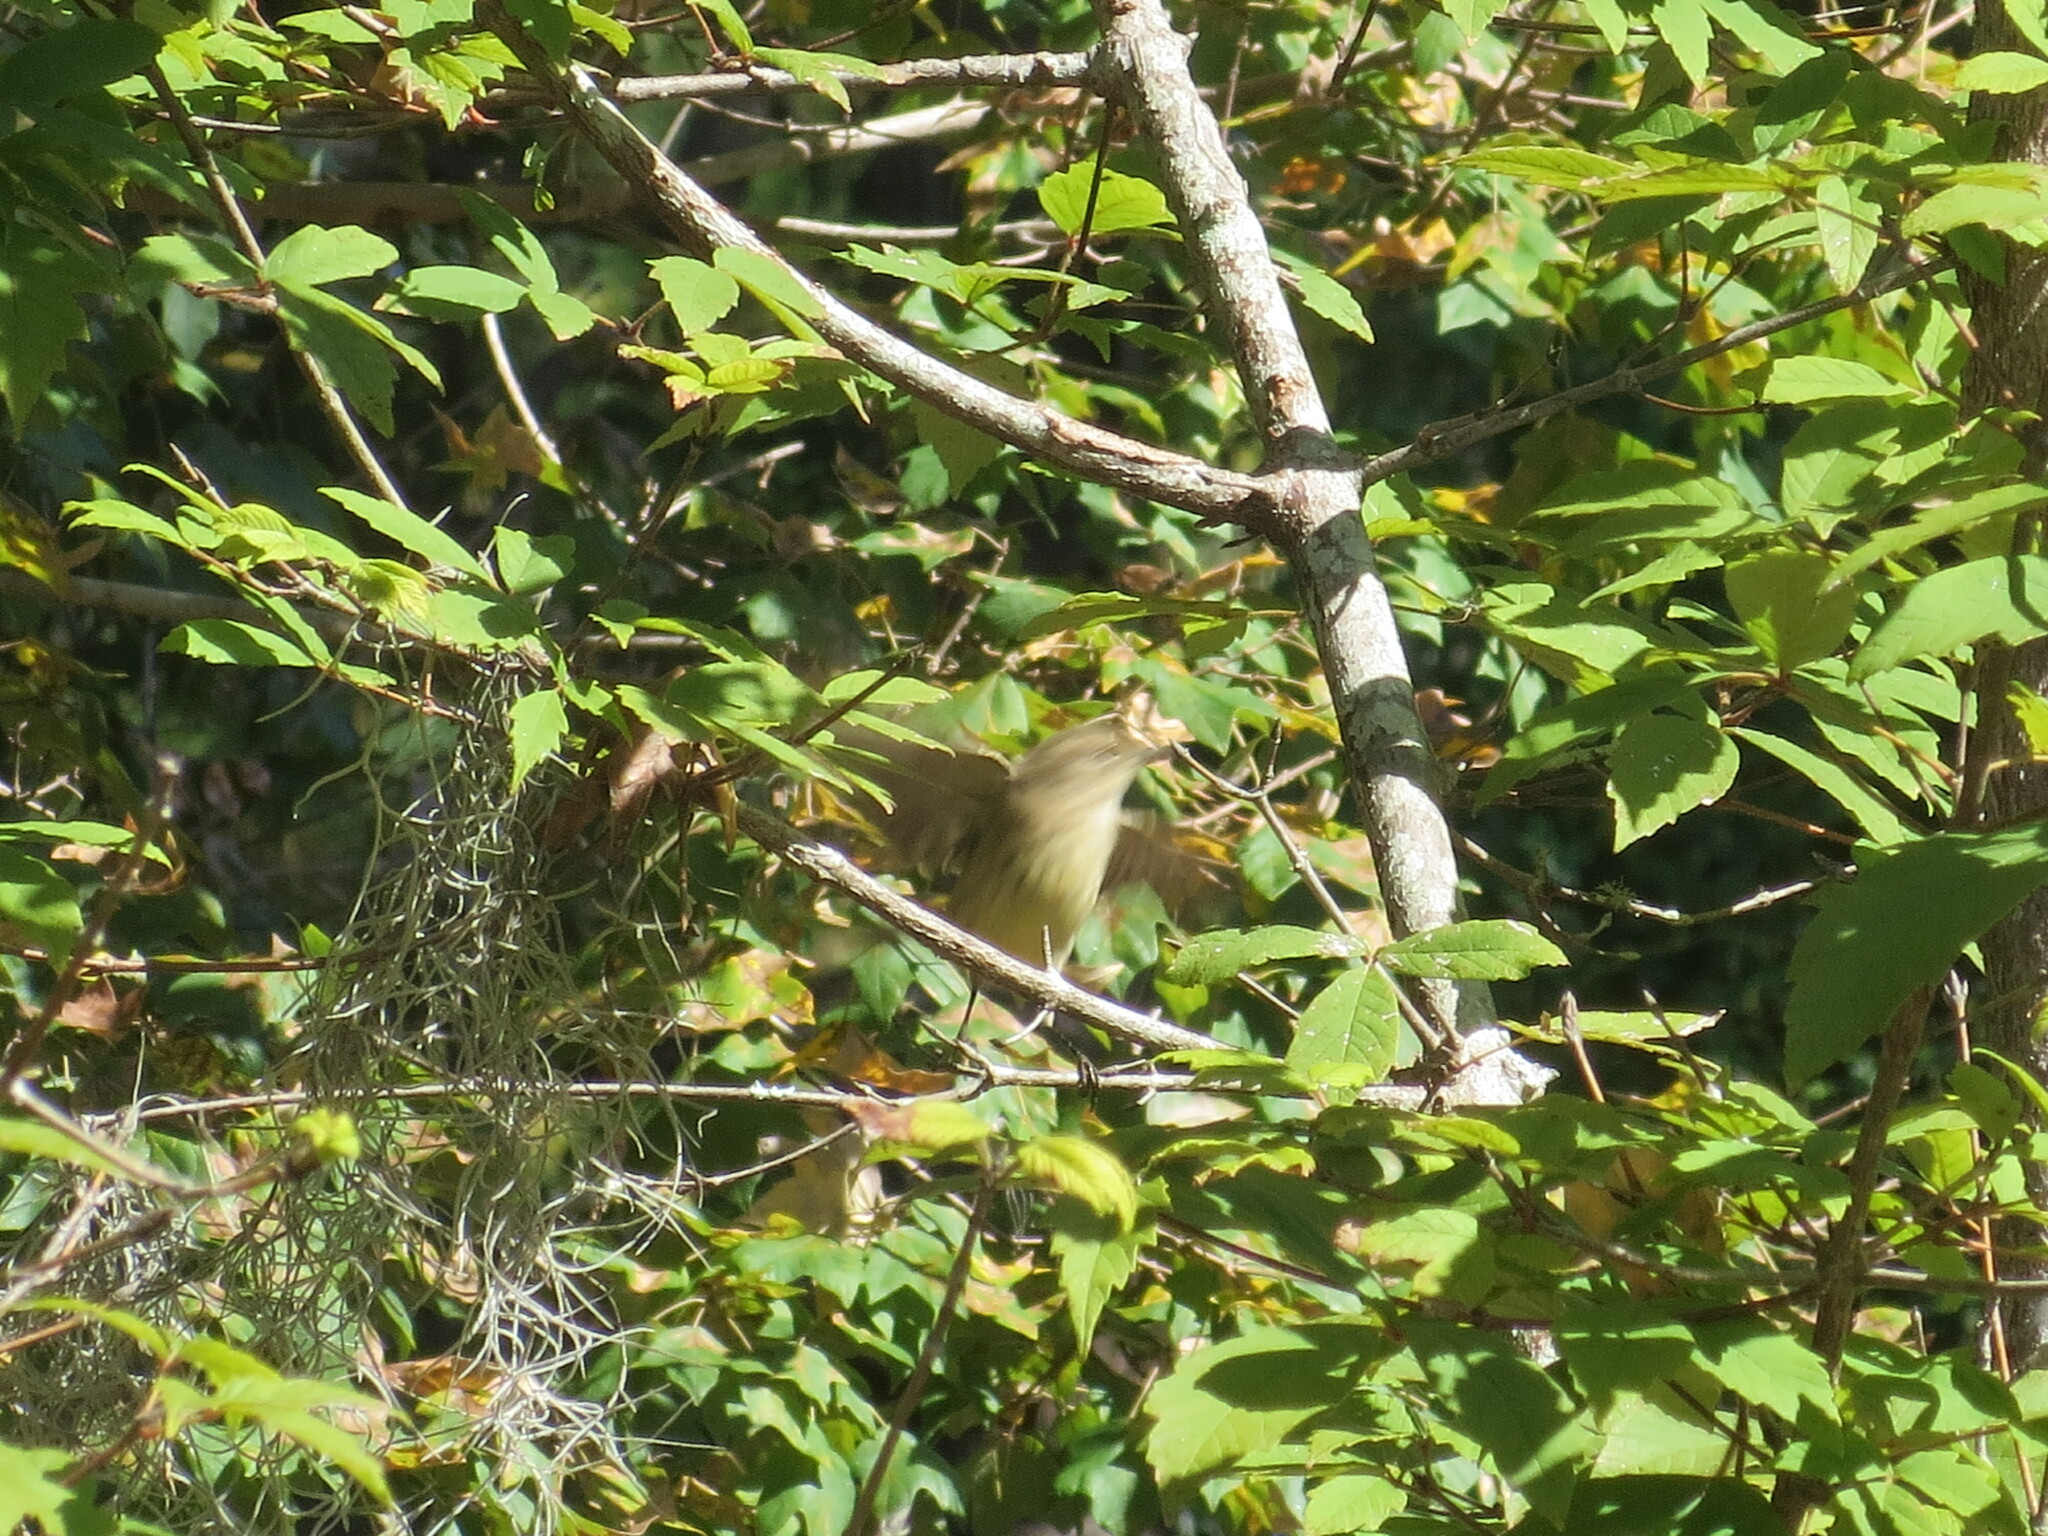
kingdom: Animalia
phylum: Chordata
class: Aves
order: Passeriformes
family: Parulidae
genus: Setophaga
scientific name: Setophaga palmarum
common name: Palm warbler
